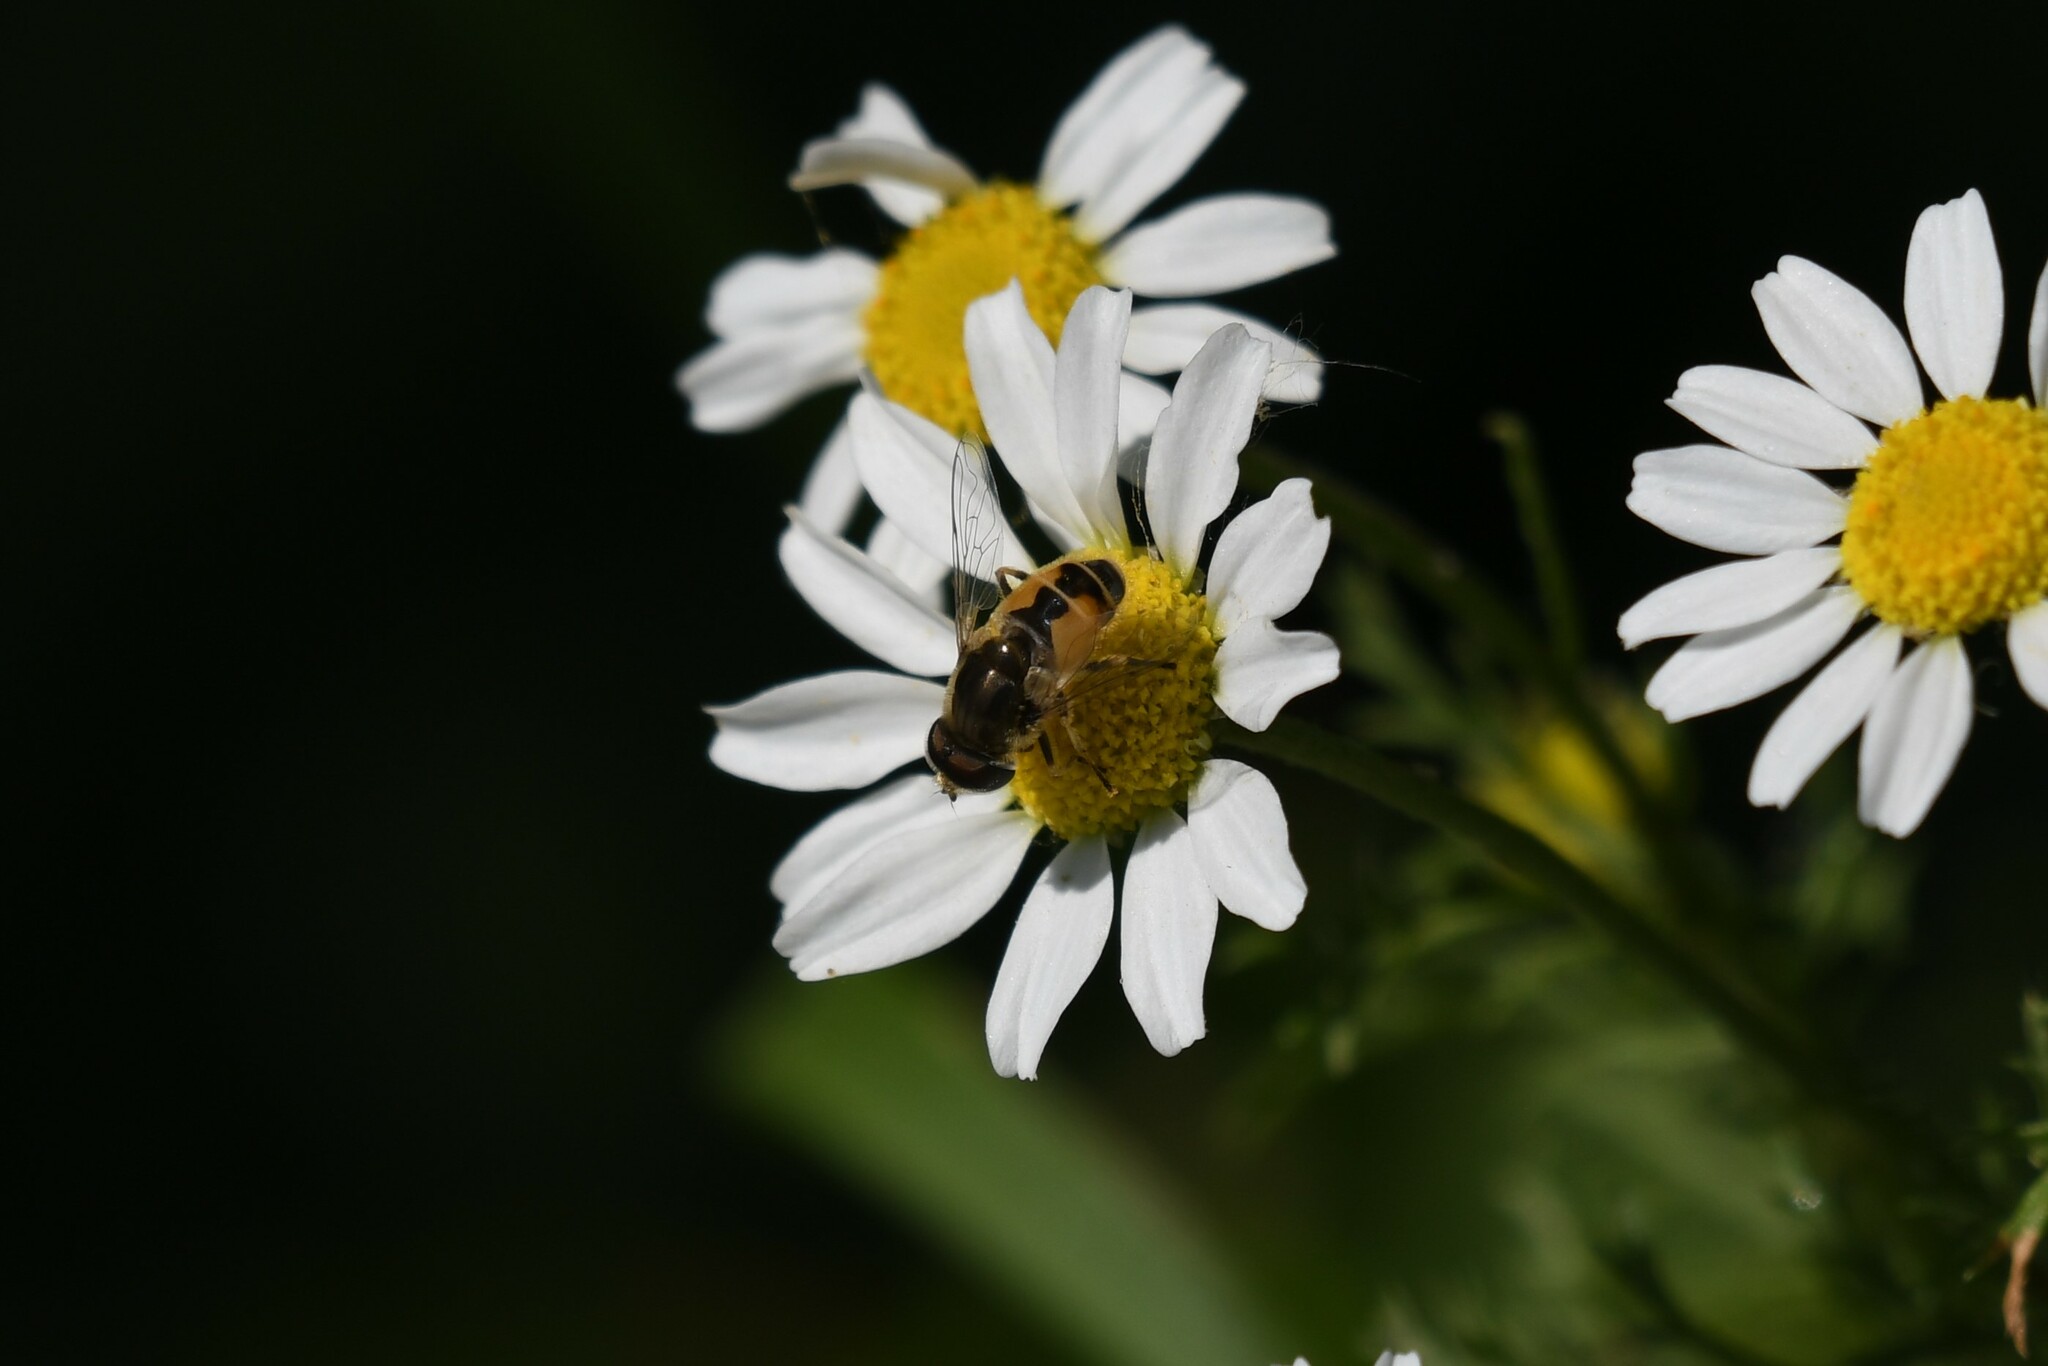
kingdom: Animalia
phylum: Arthropoda
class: Insecta
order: Diptera
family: Syrphidae
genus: Eristalis
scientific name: Eristalis arbustorum
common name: Hover fly
